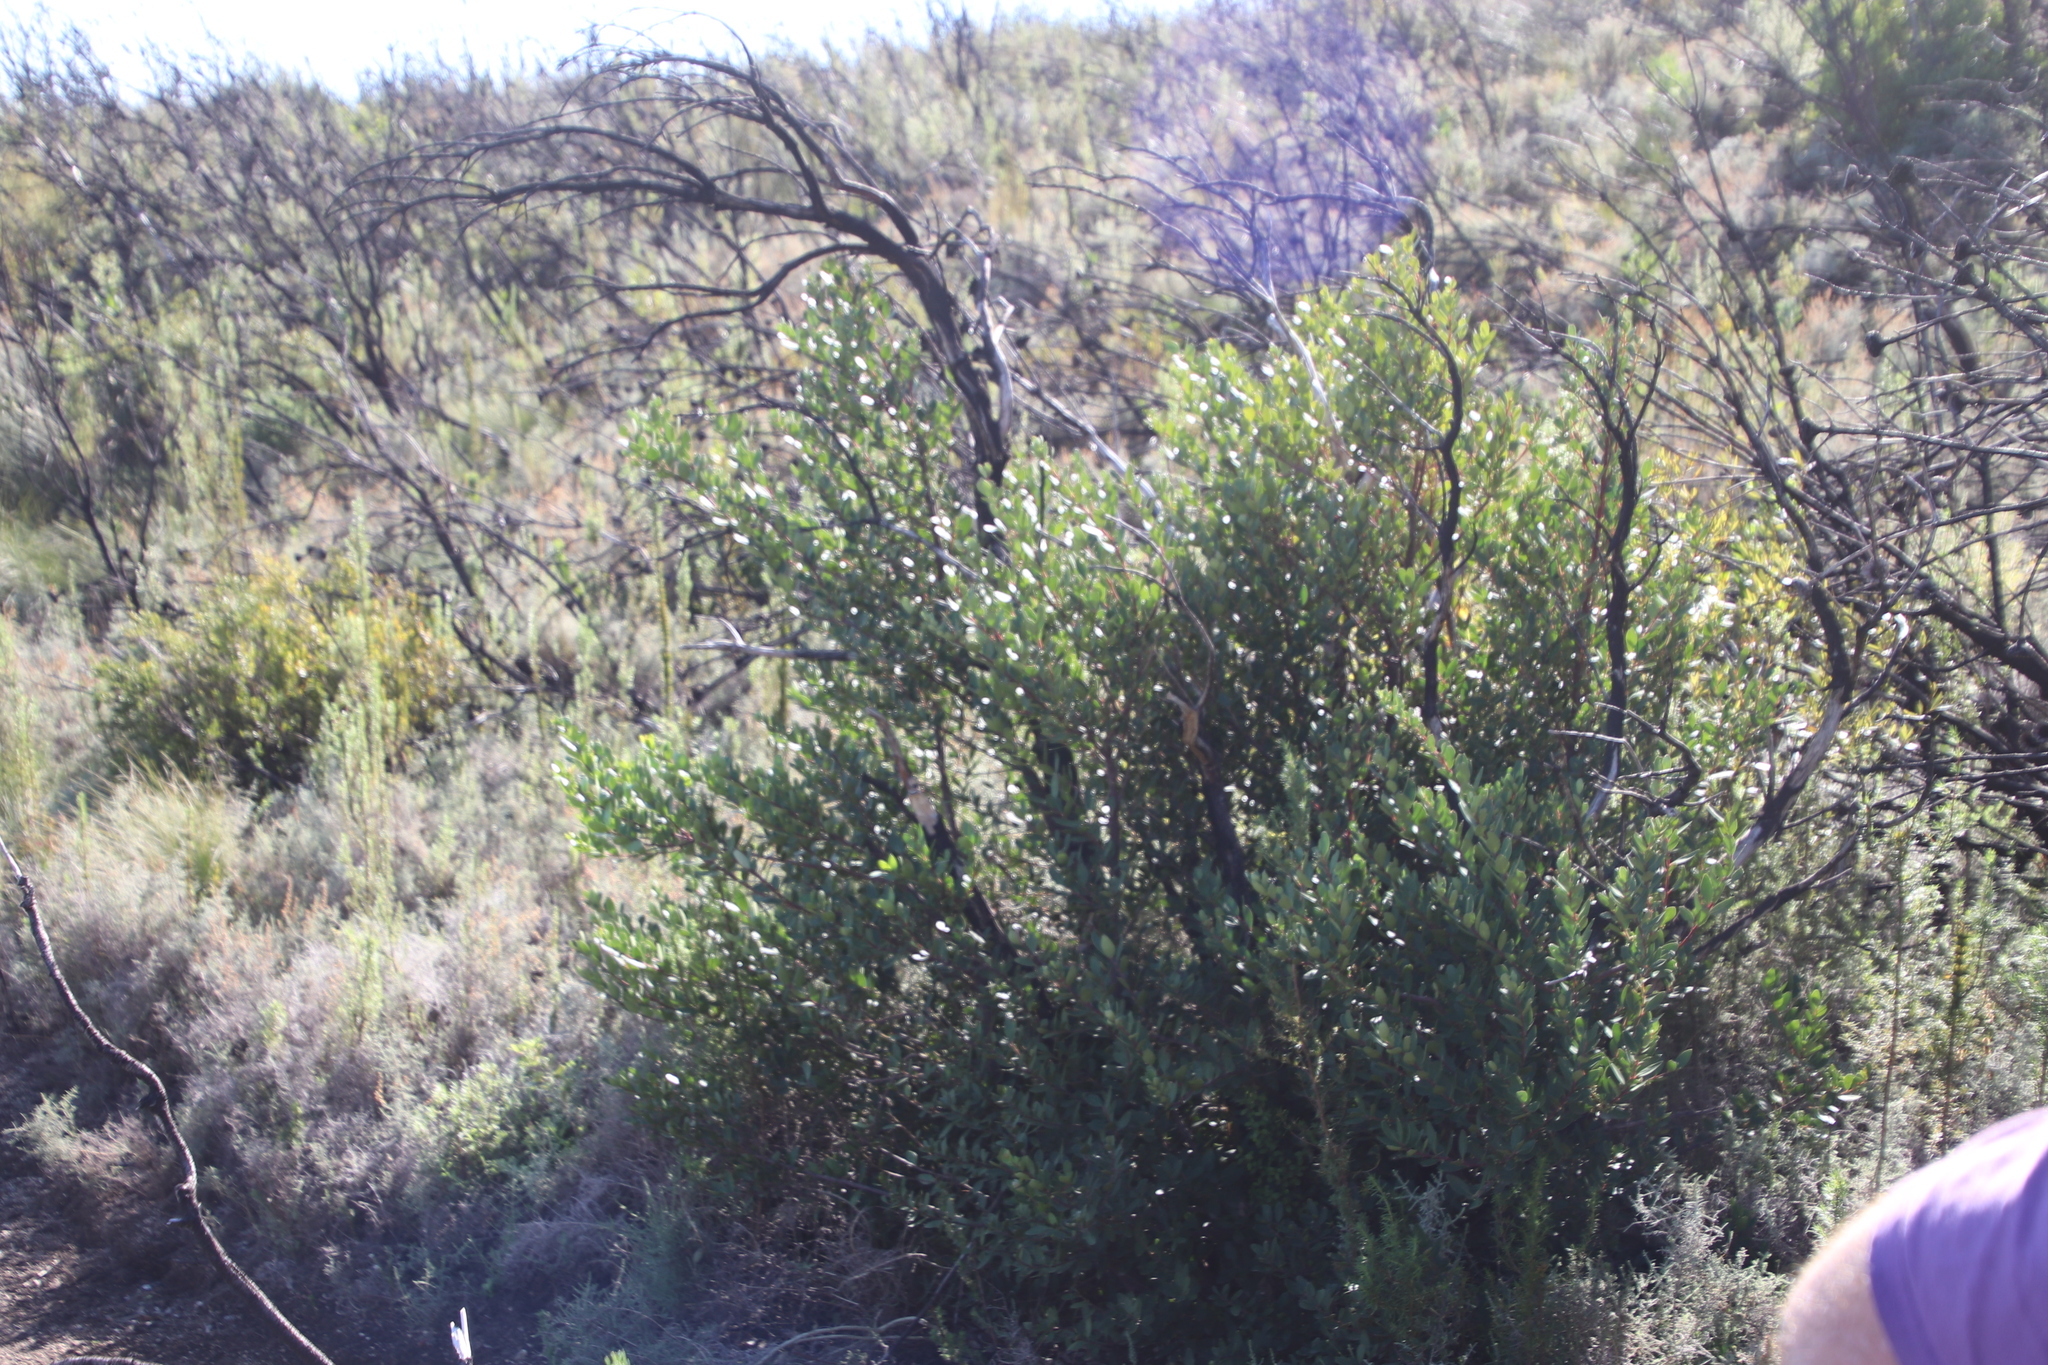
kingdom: Plantae
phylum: Tracheophyta
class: Magnoliopsida
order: Celastrales
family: Celastraceae
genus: Gymnosporia
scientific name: Gymnosporia laurina
